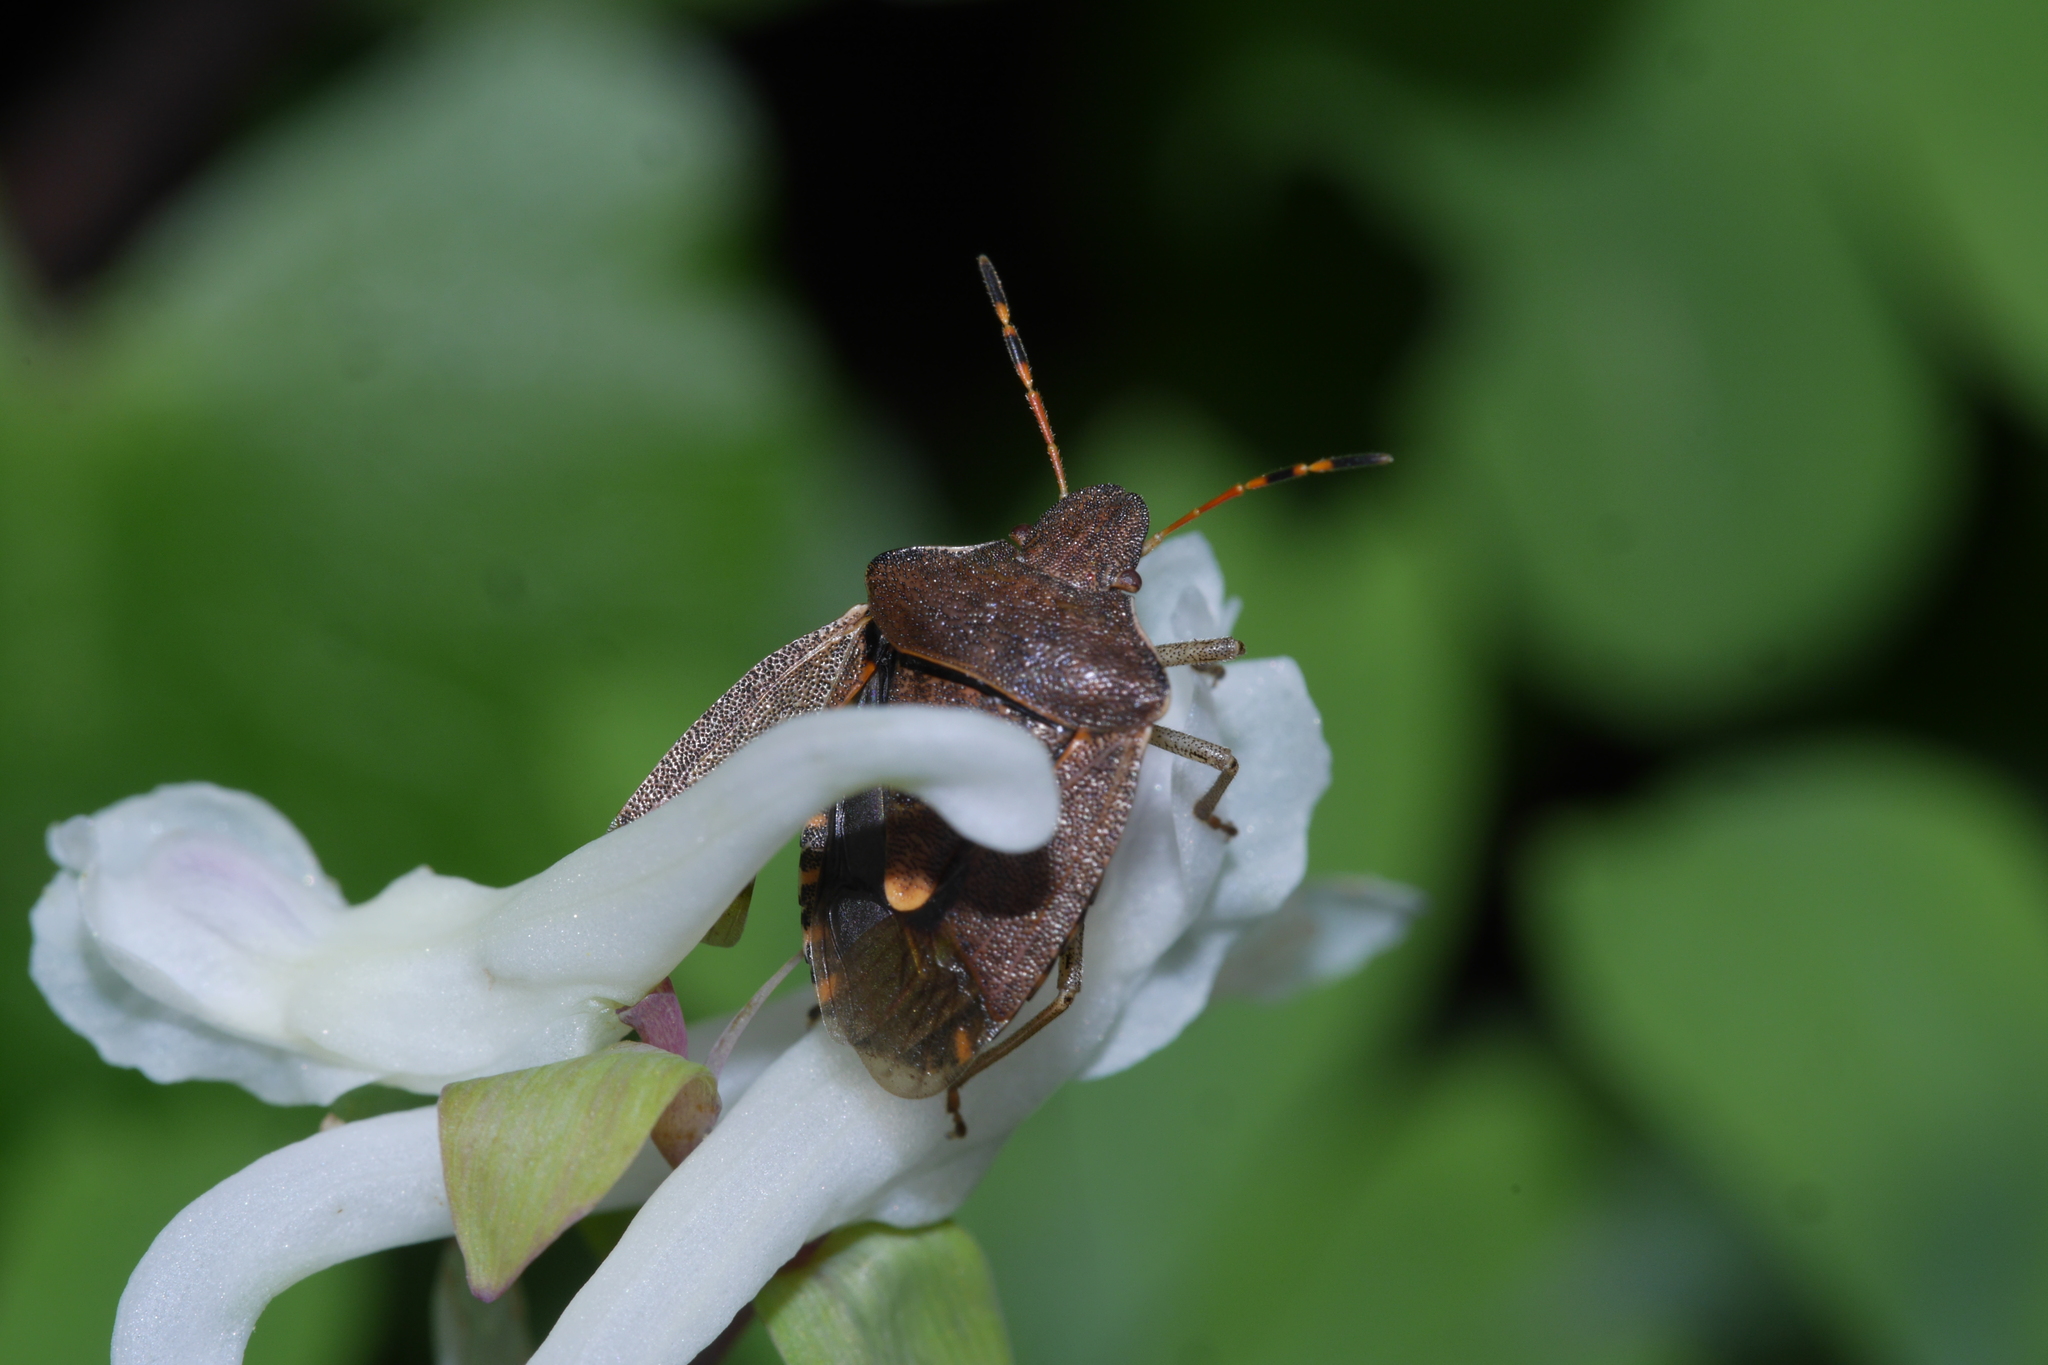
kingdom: Animalia
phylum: Arthropoda
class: Insecta
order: Hemiptera
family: Pentatomidae
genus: Holcostethus
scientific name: Holcostethus strictus
